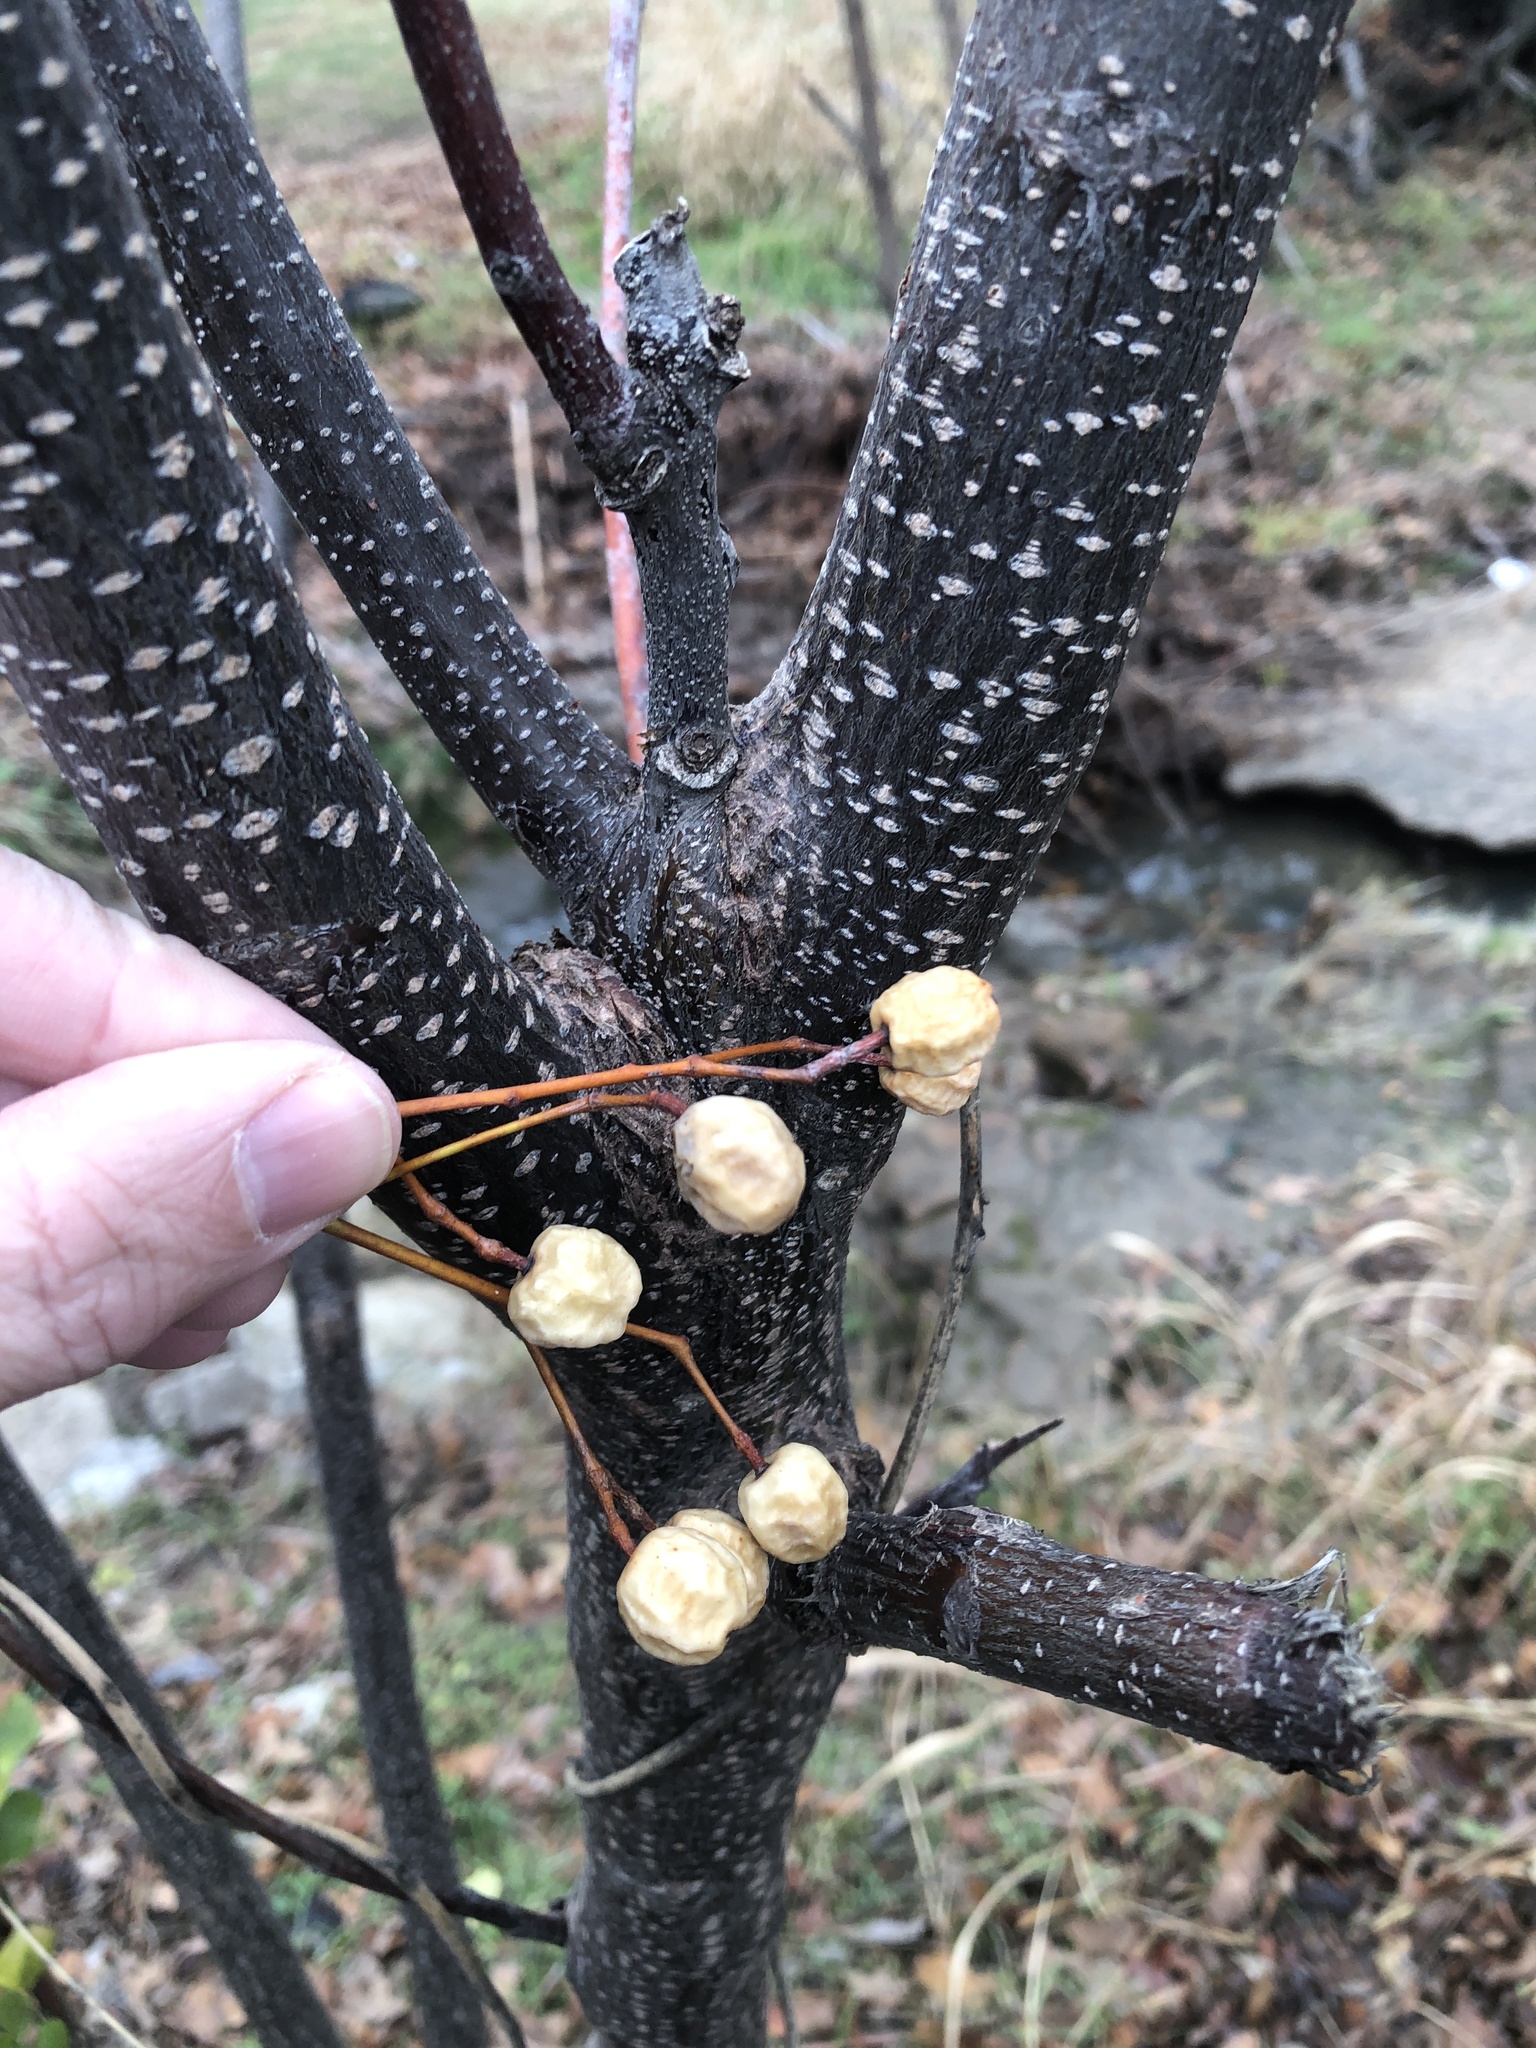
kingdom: Plantae
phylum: Tracheophyta
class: Magnoliopsida
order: Sapindales
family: Meliaceae
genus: Melia
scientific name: Melia azedarach
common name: Chinaberrytree
